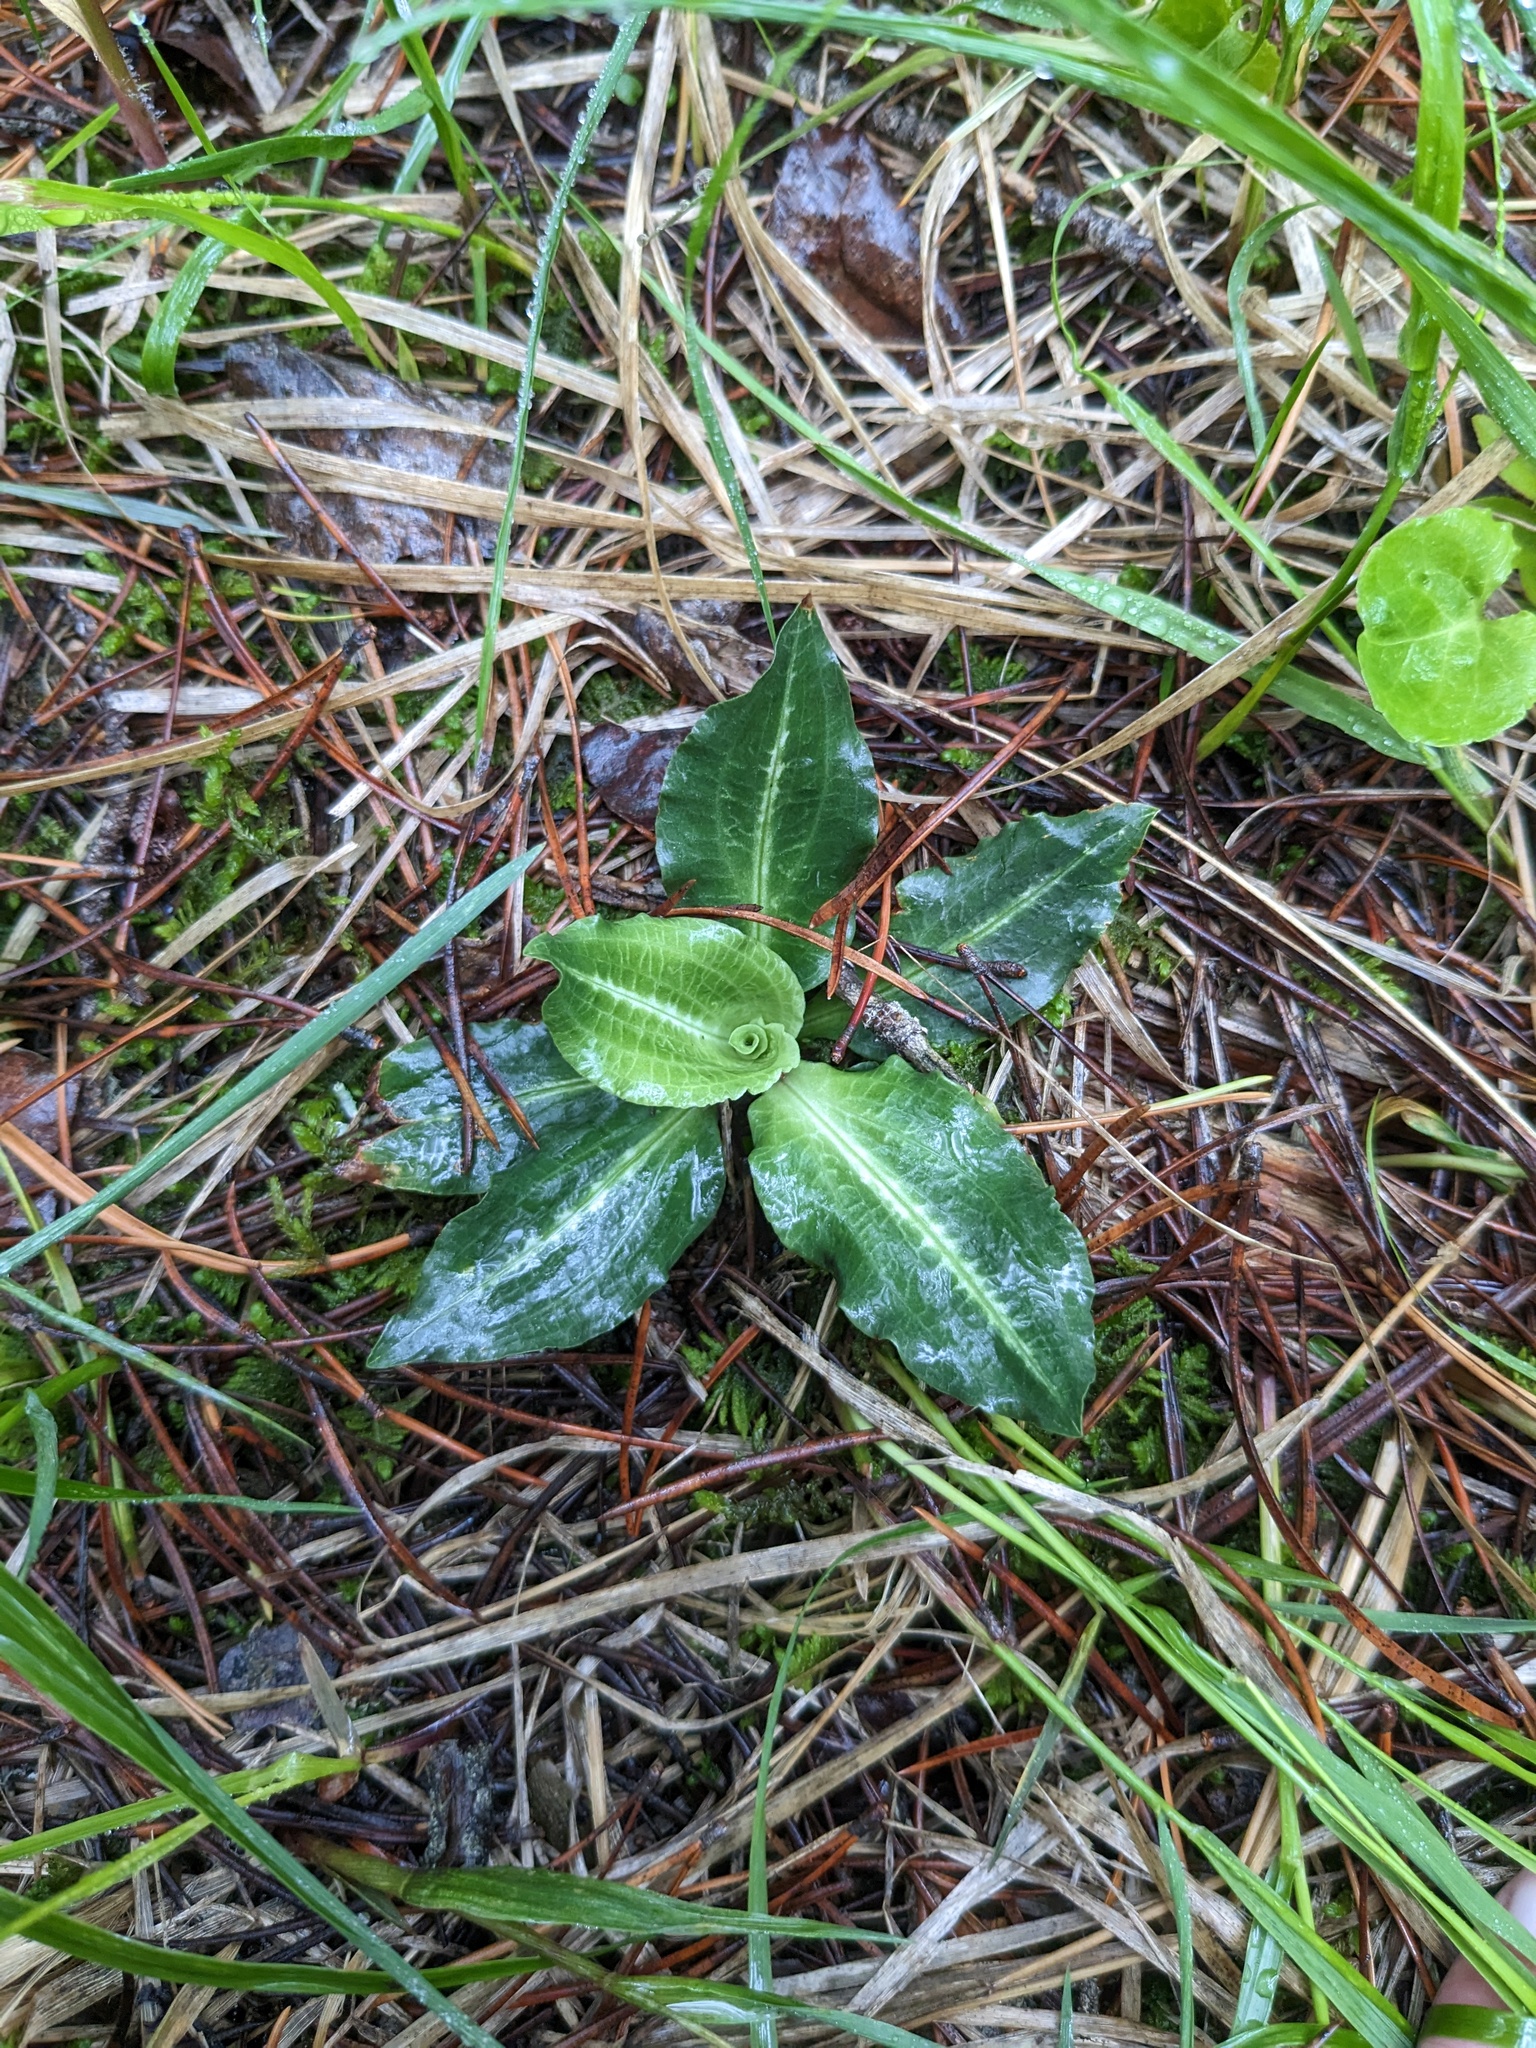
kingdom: Plantae
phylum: Tracheophyta
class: Liliopsida
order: Asparagales
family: Orchidaceae
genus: Goodyera
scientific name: Goodyera oblongifolia
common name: Giant rattlesnake-plantain
